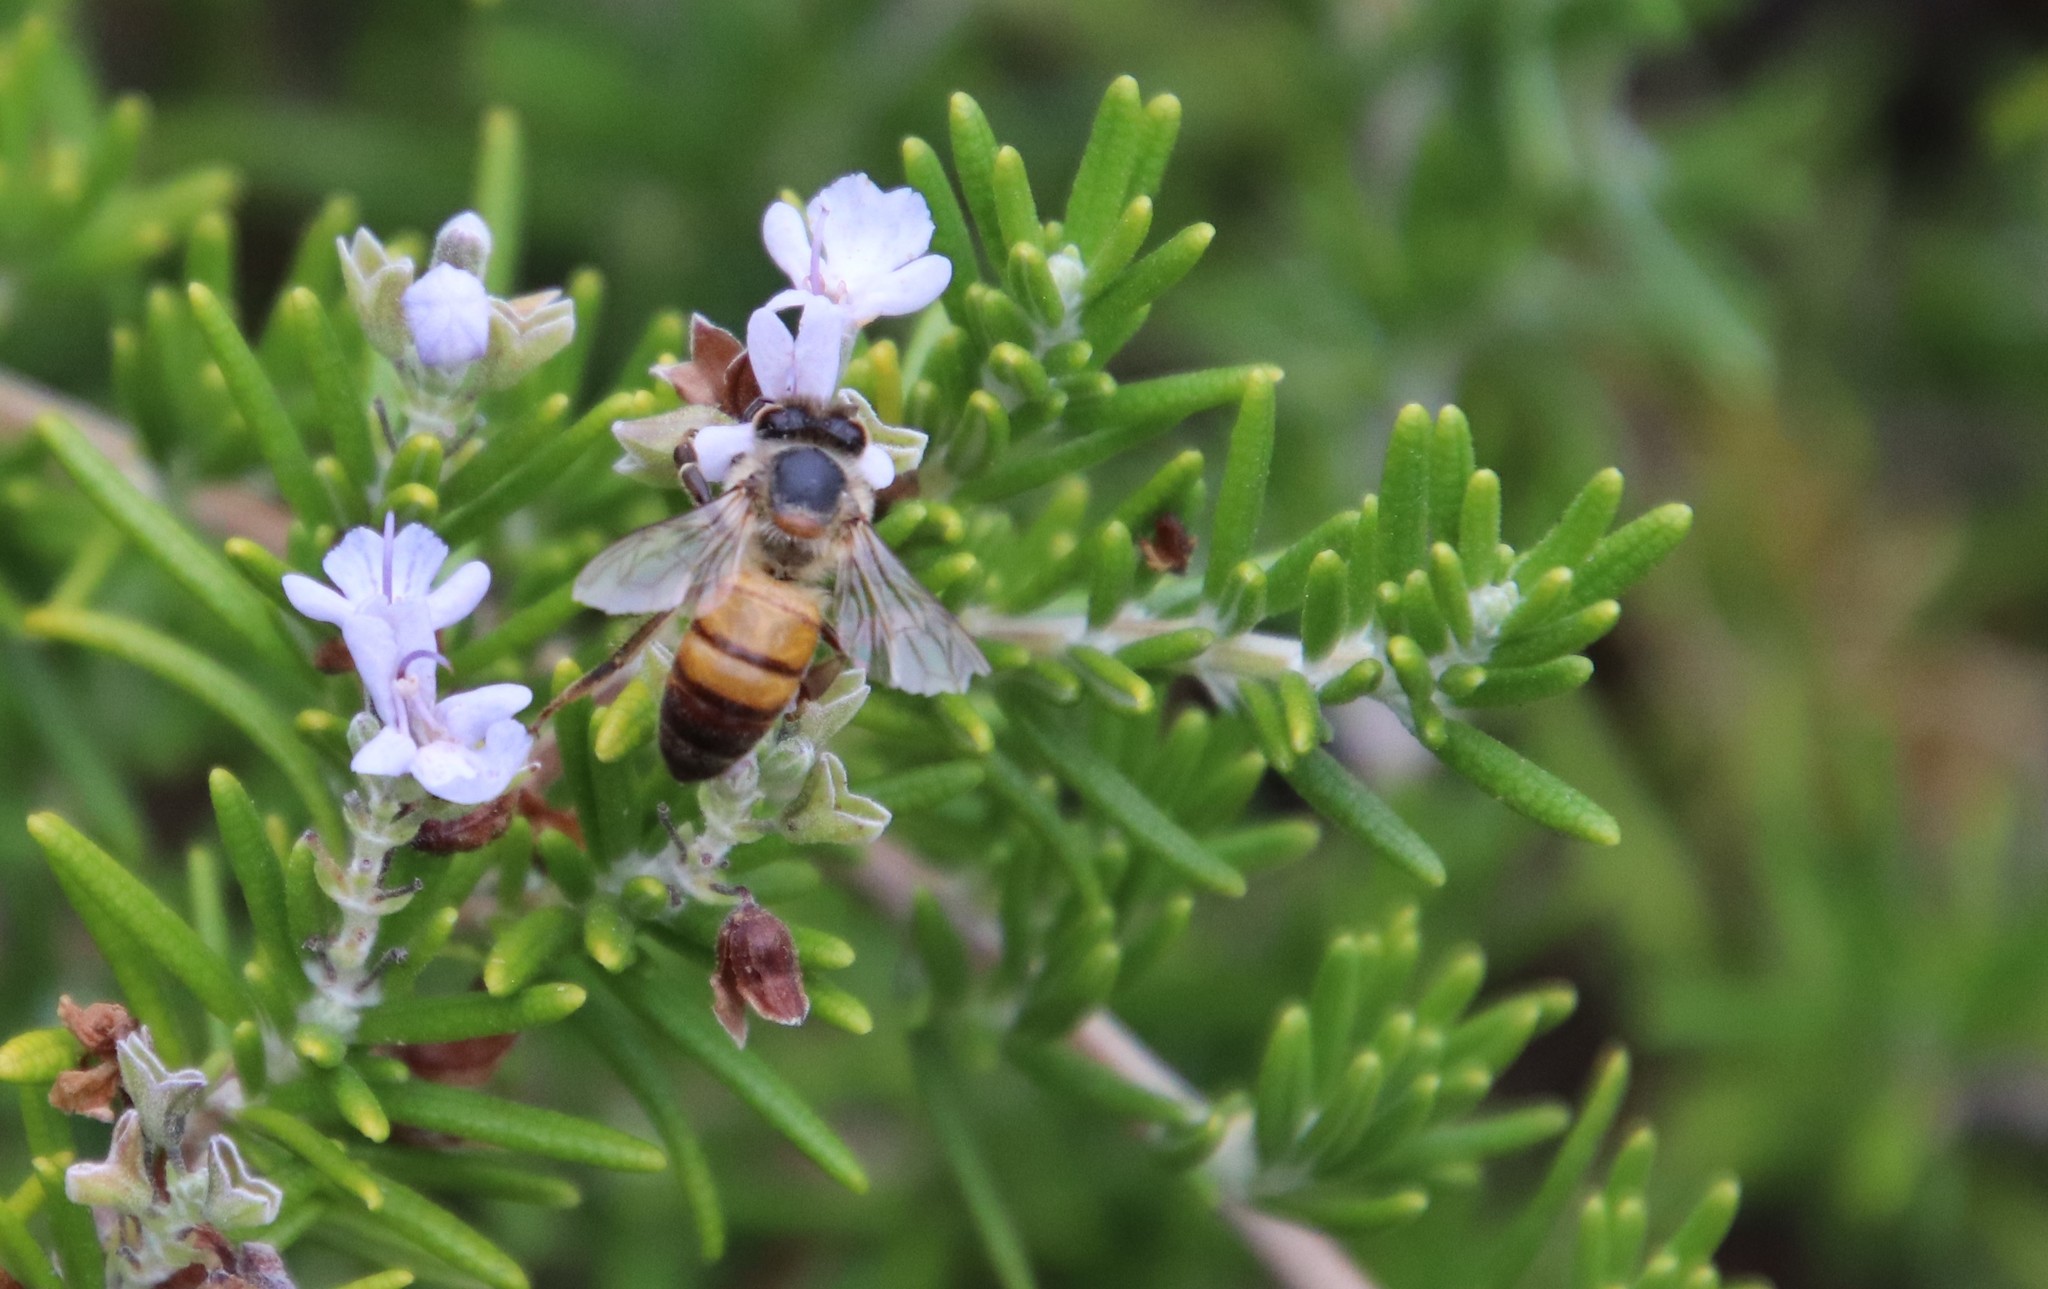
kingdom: Animalia
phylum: Arthropoda
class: Insecta
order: Hymenoptera
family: Apidae
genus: Apis
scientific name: Apis mellifera
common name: Honey bee
